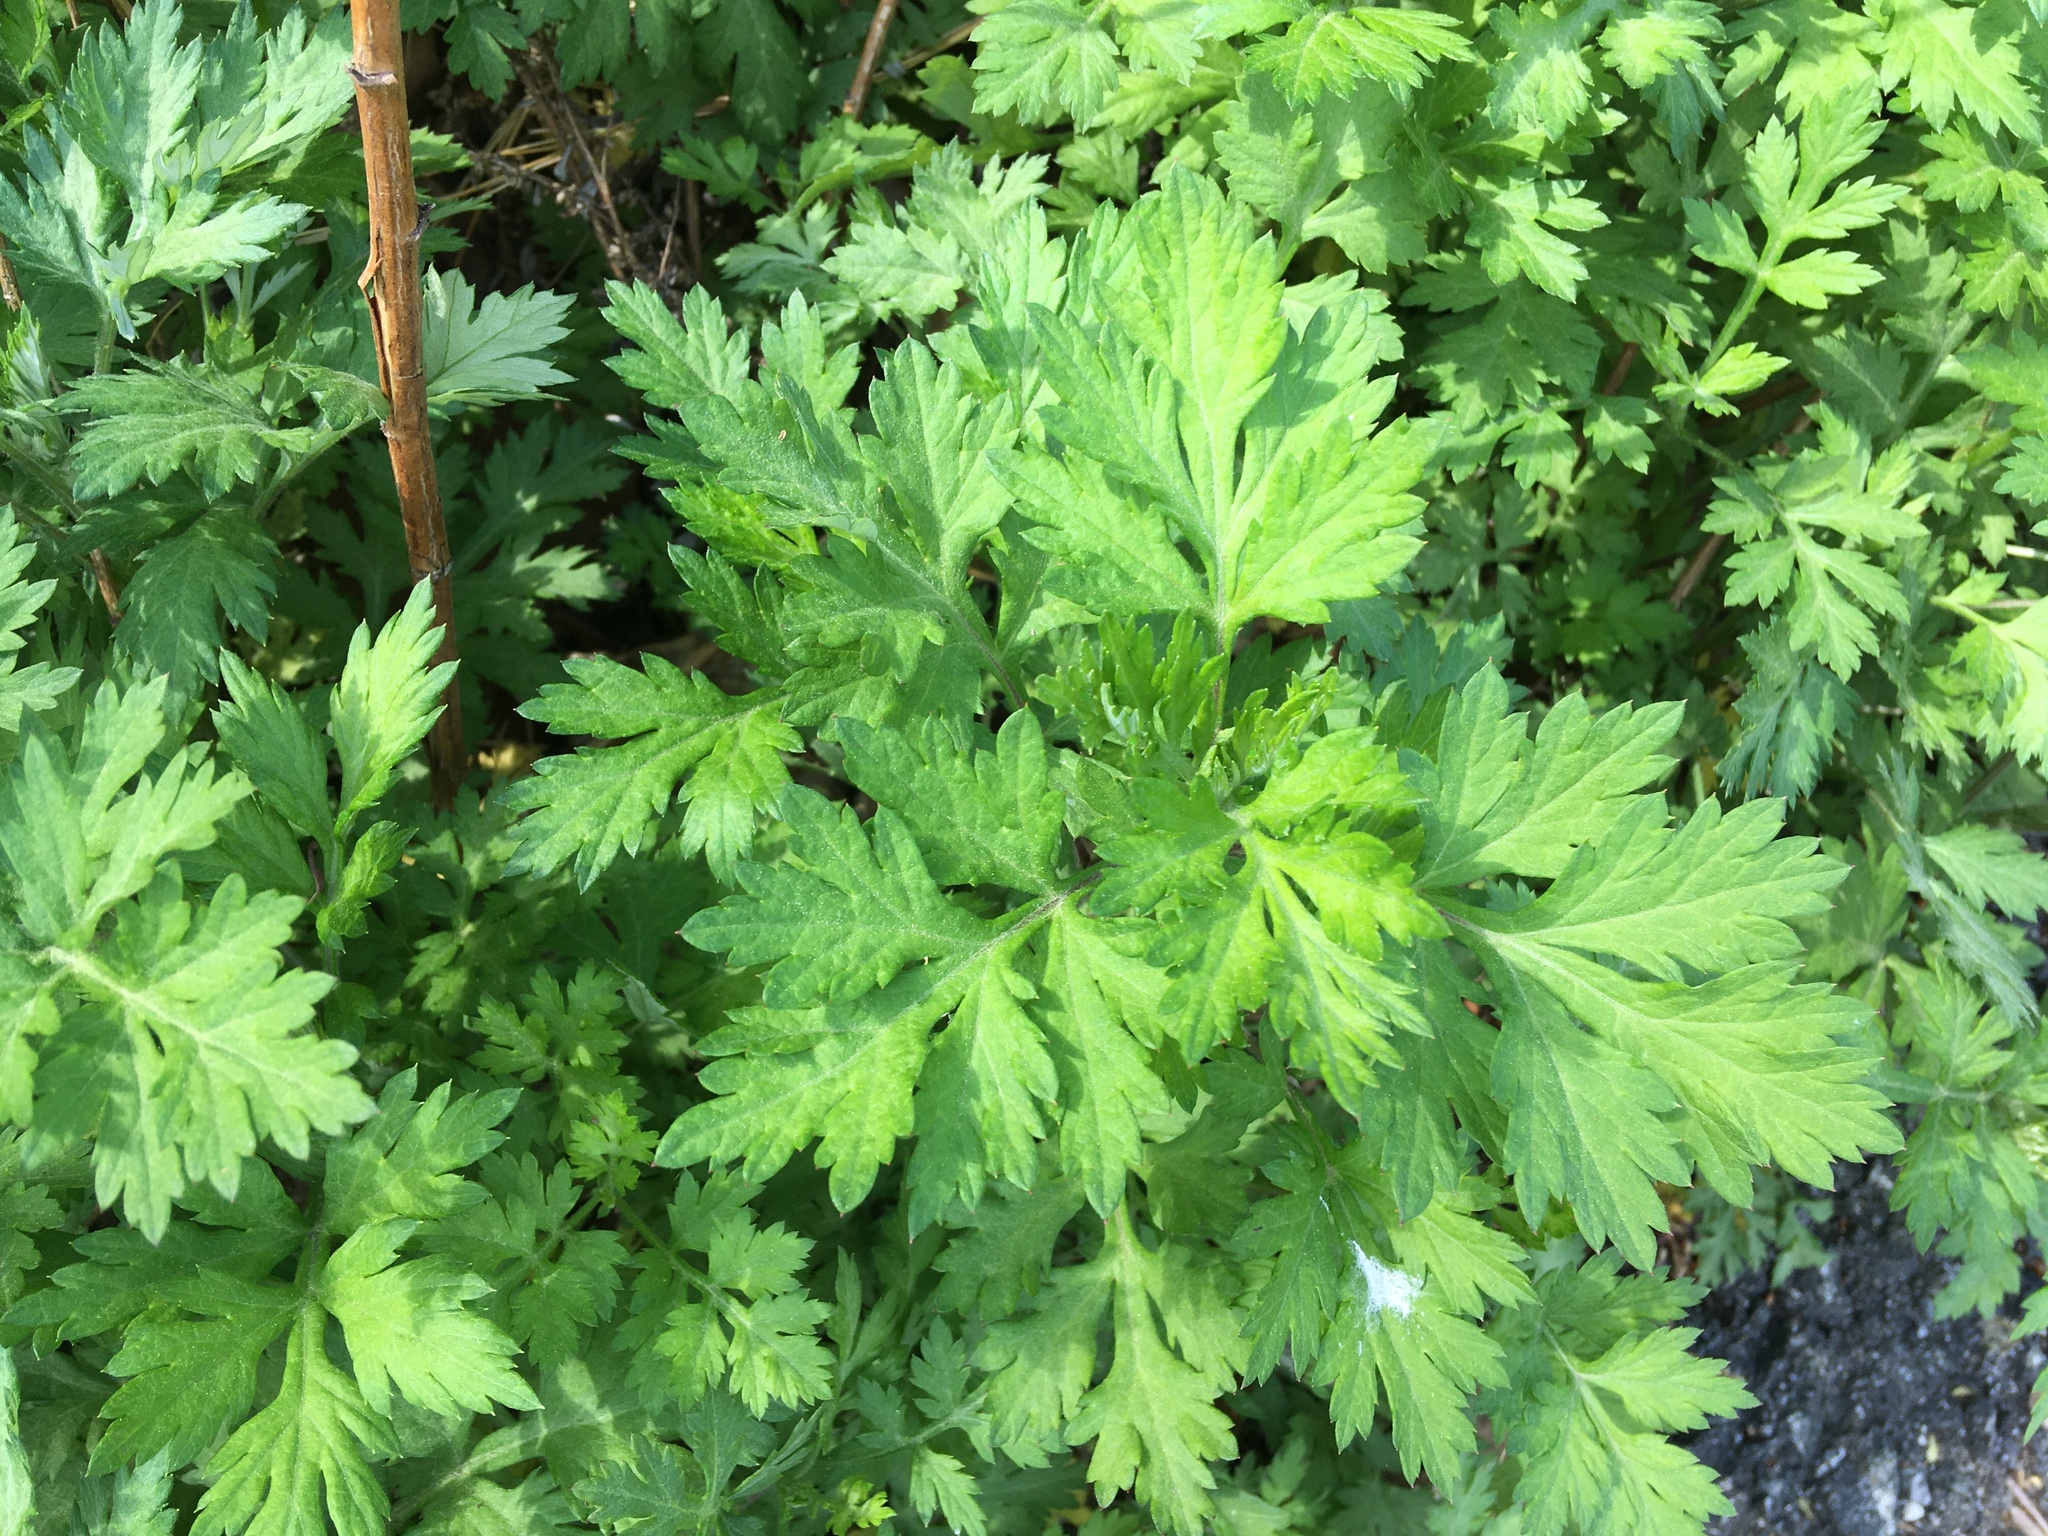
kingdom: Plantae
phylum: Tracheophyta
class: Magnoliopsida
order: Asterales
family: Asteraceae
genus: Artemisia
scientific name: Artemisia vulgaris
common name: Mugwort
